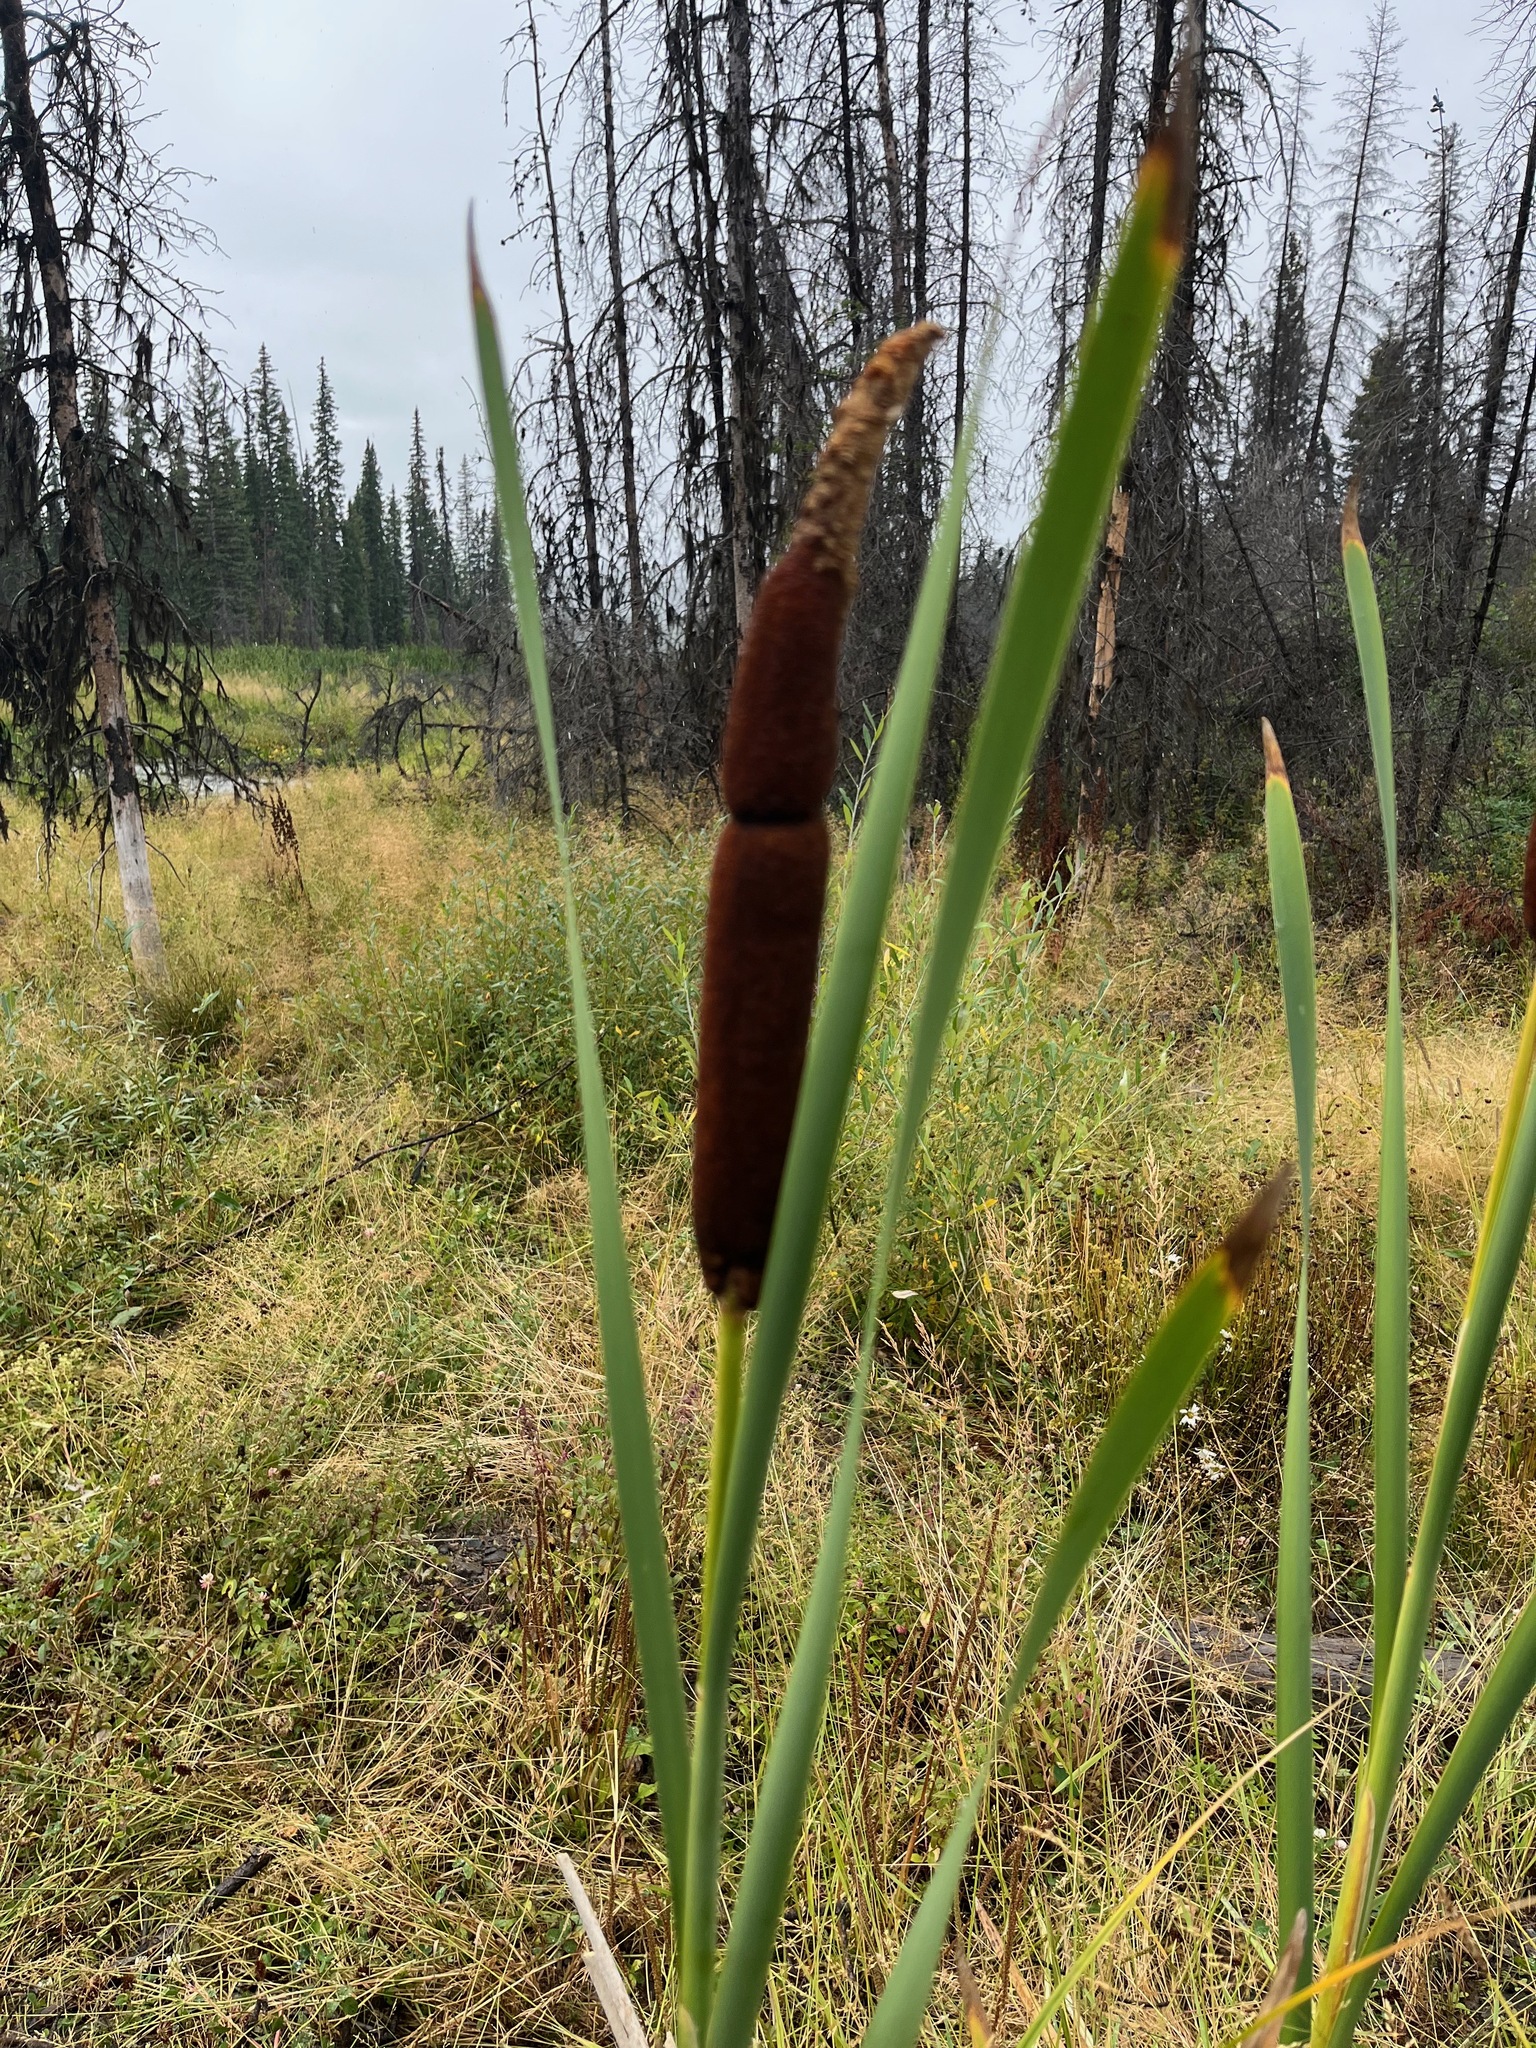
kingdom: Plantae
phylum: Tracheophyta
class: Liliopsida
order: Poales
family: Typhaceae
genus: Typha
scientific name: Typha latifolia
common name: Broadleaf cattail
